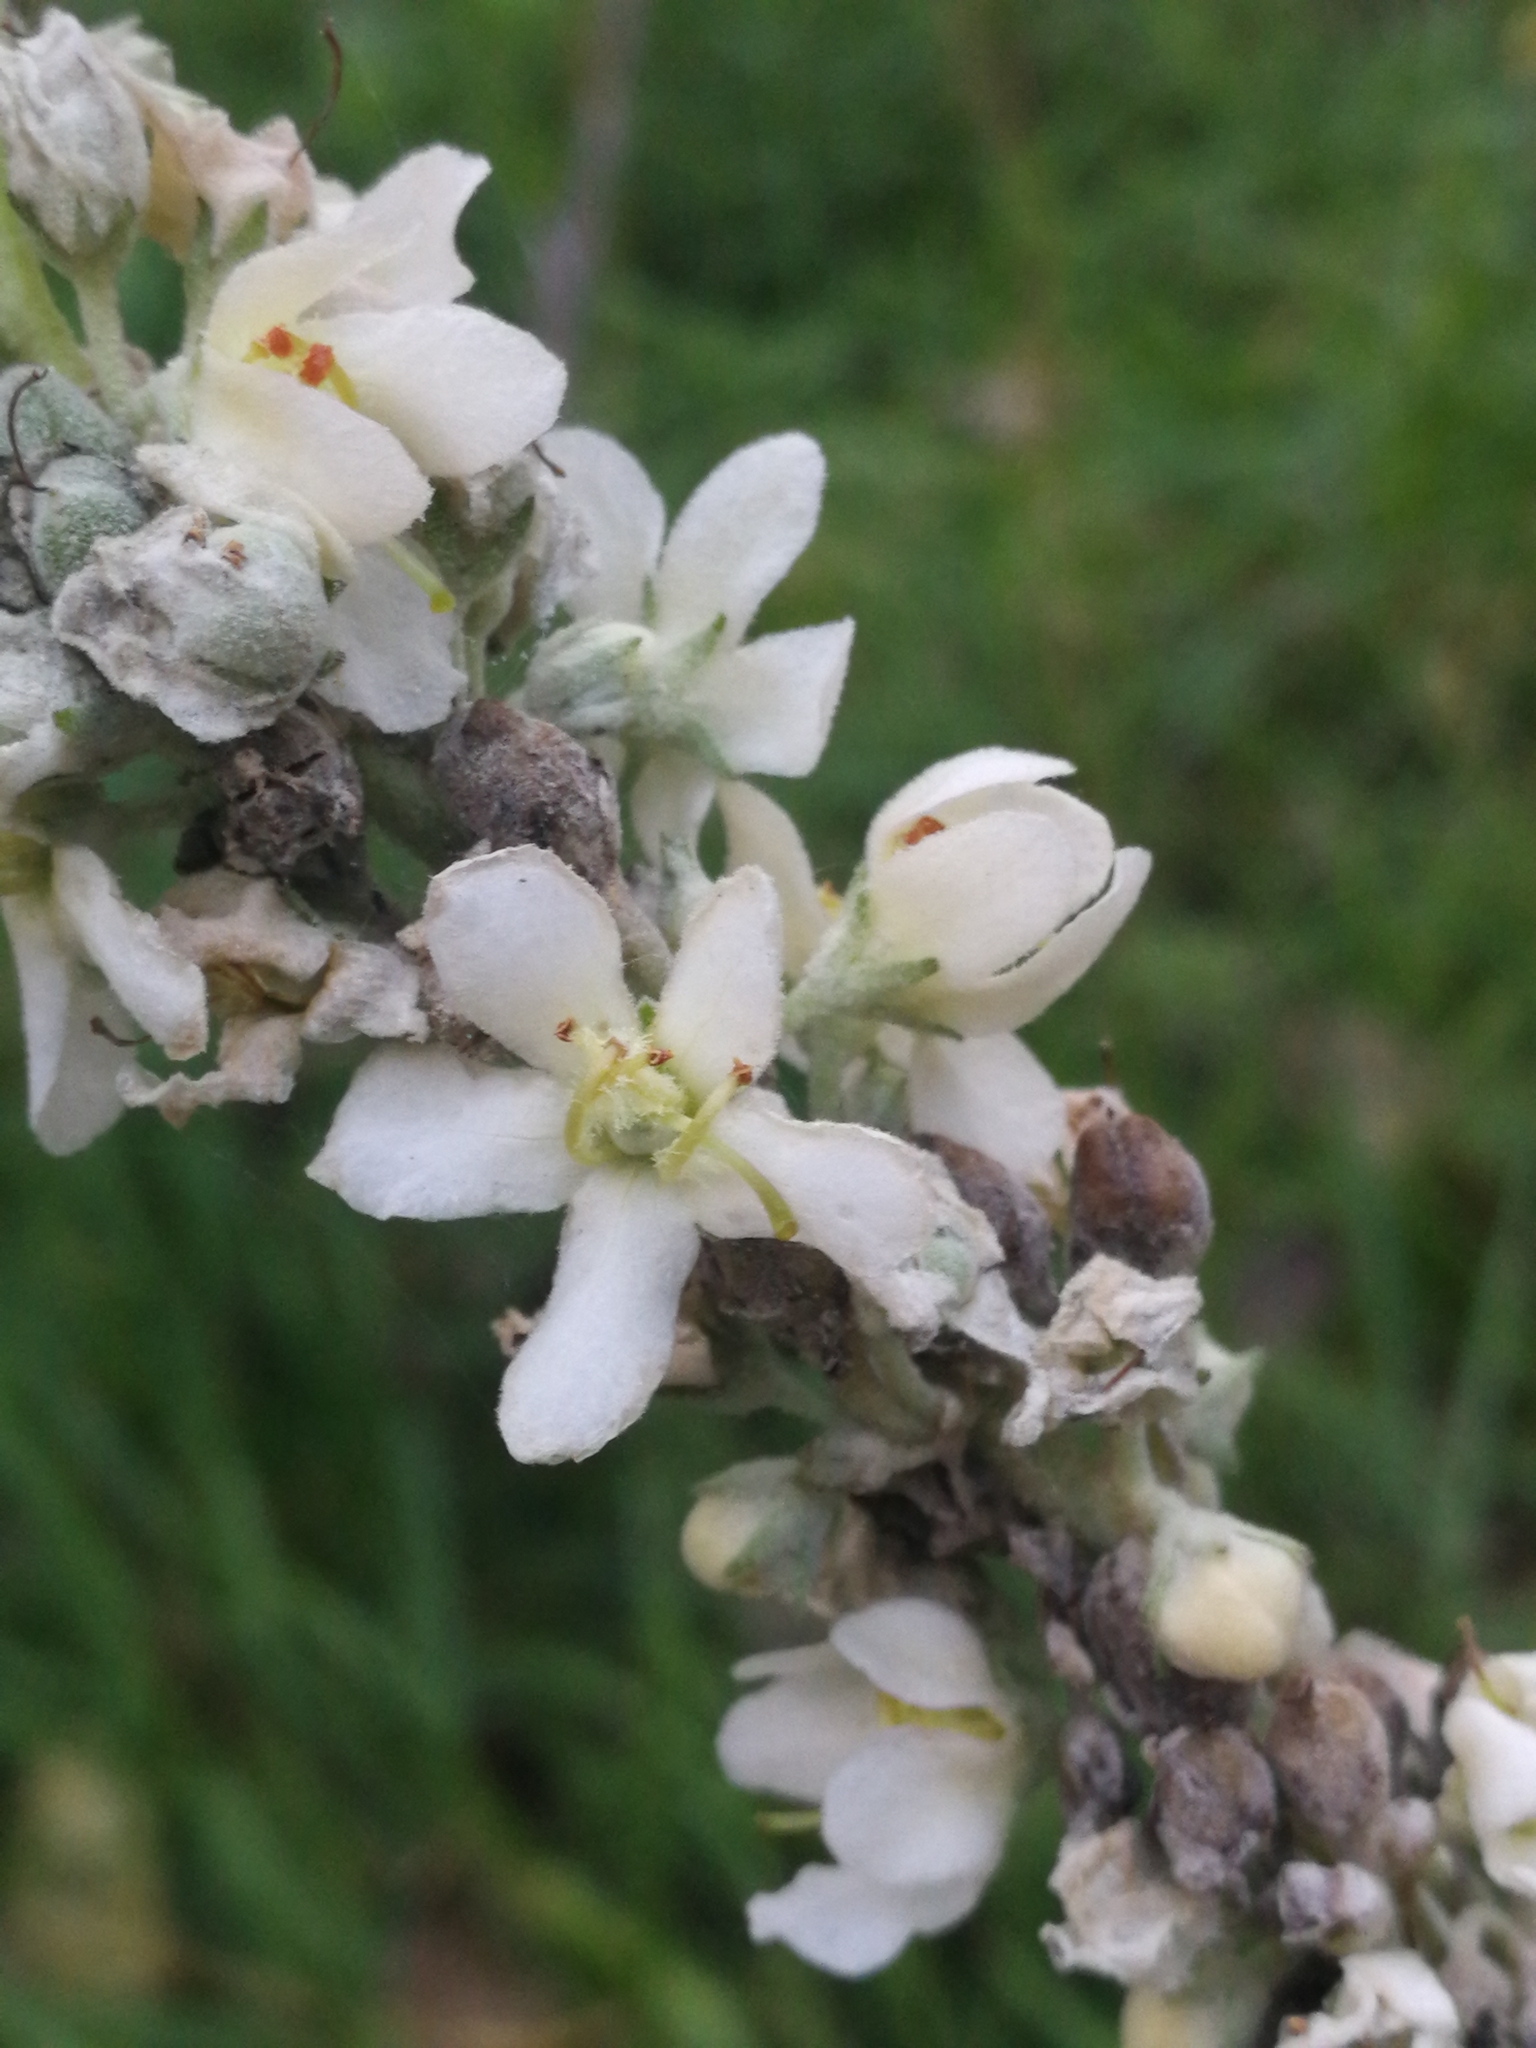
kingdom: Plantae
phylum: Tracheophyta
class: Magnoliopsida
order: Lamiales
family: Scrophulariaceae
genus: Verbascum
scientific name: Verbascum lychnitis
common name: White mullein
